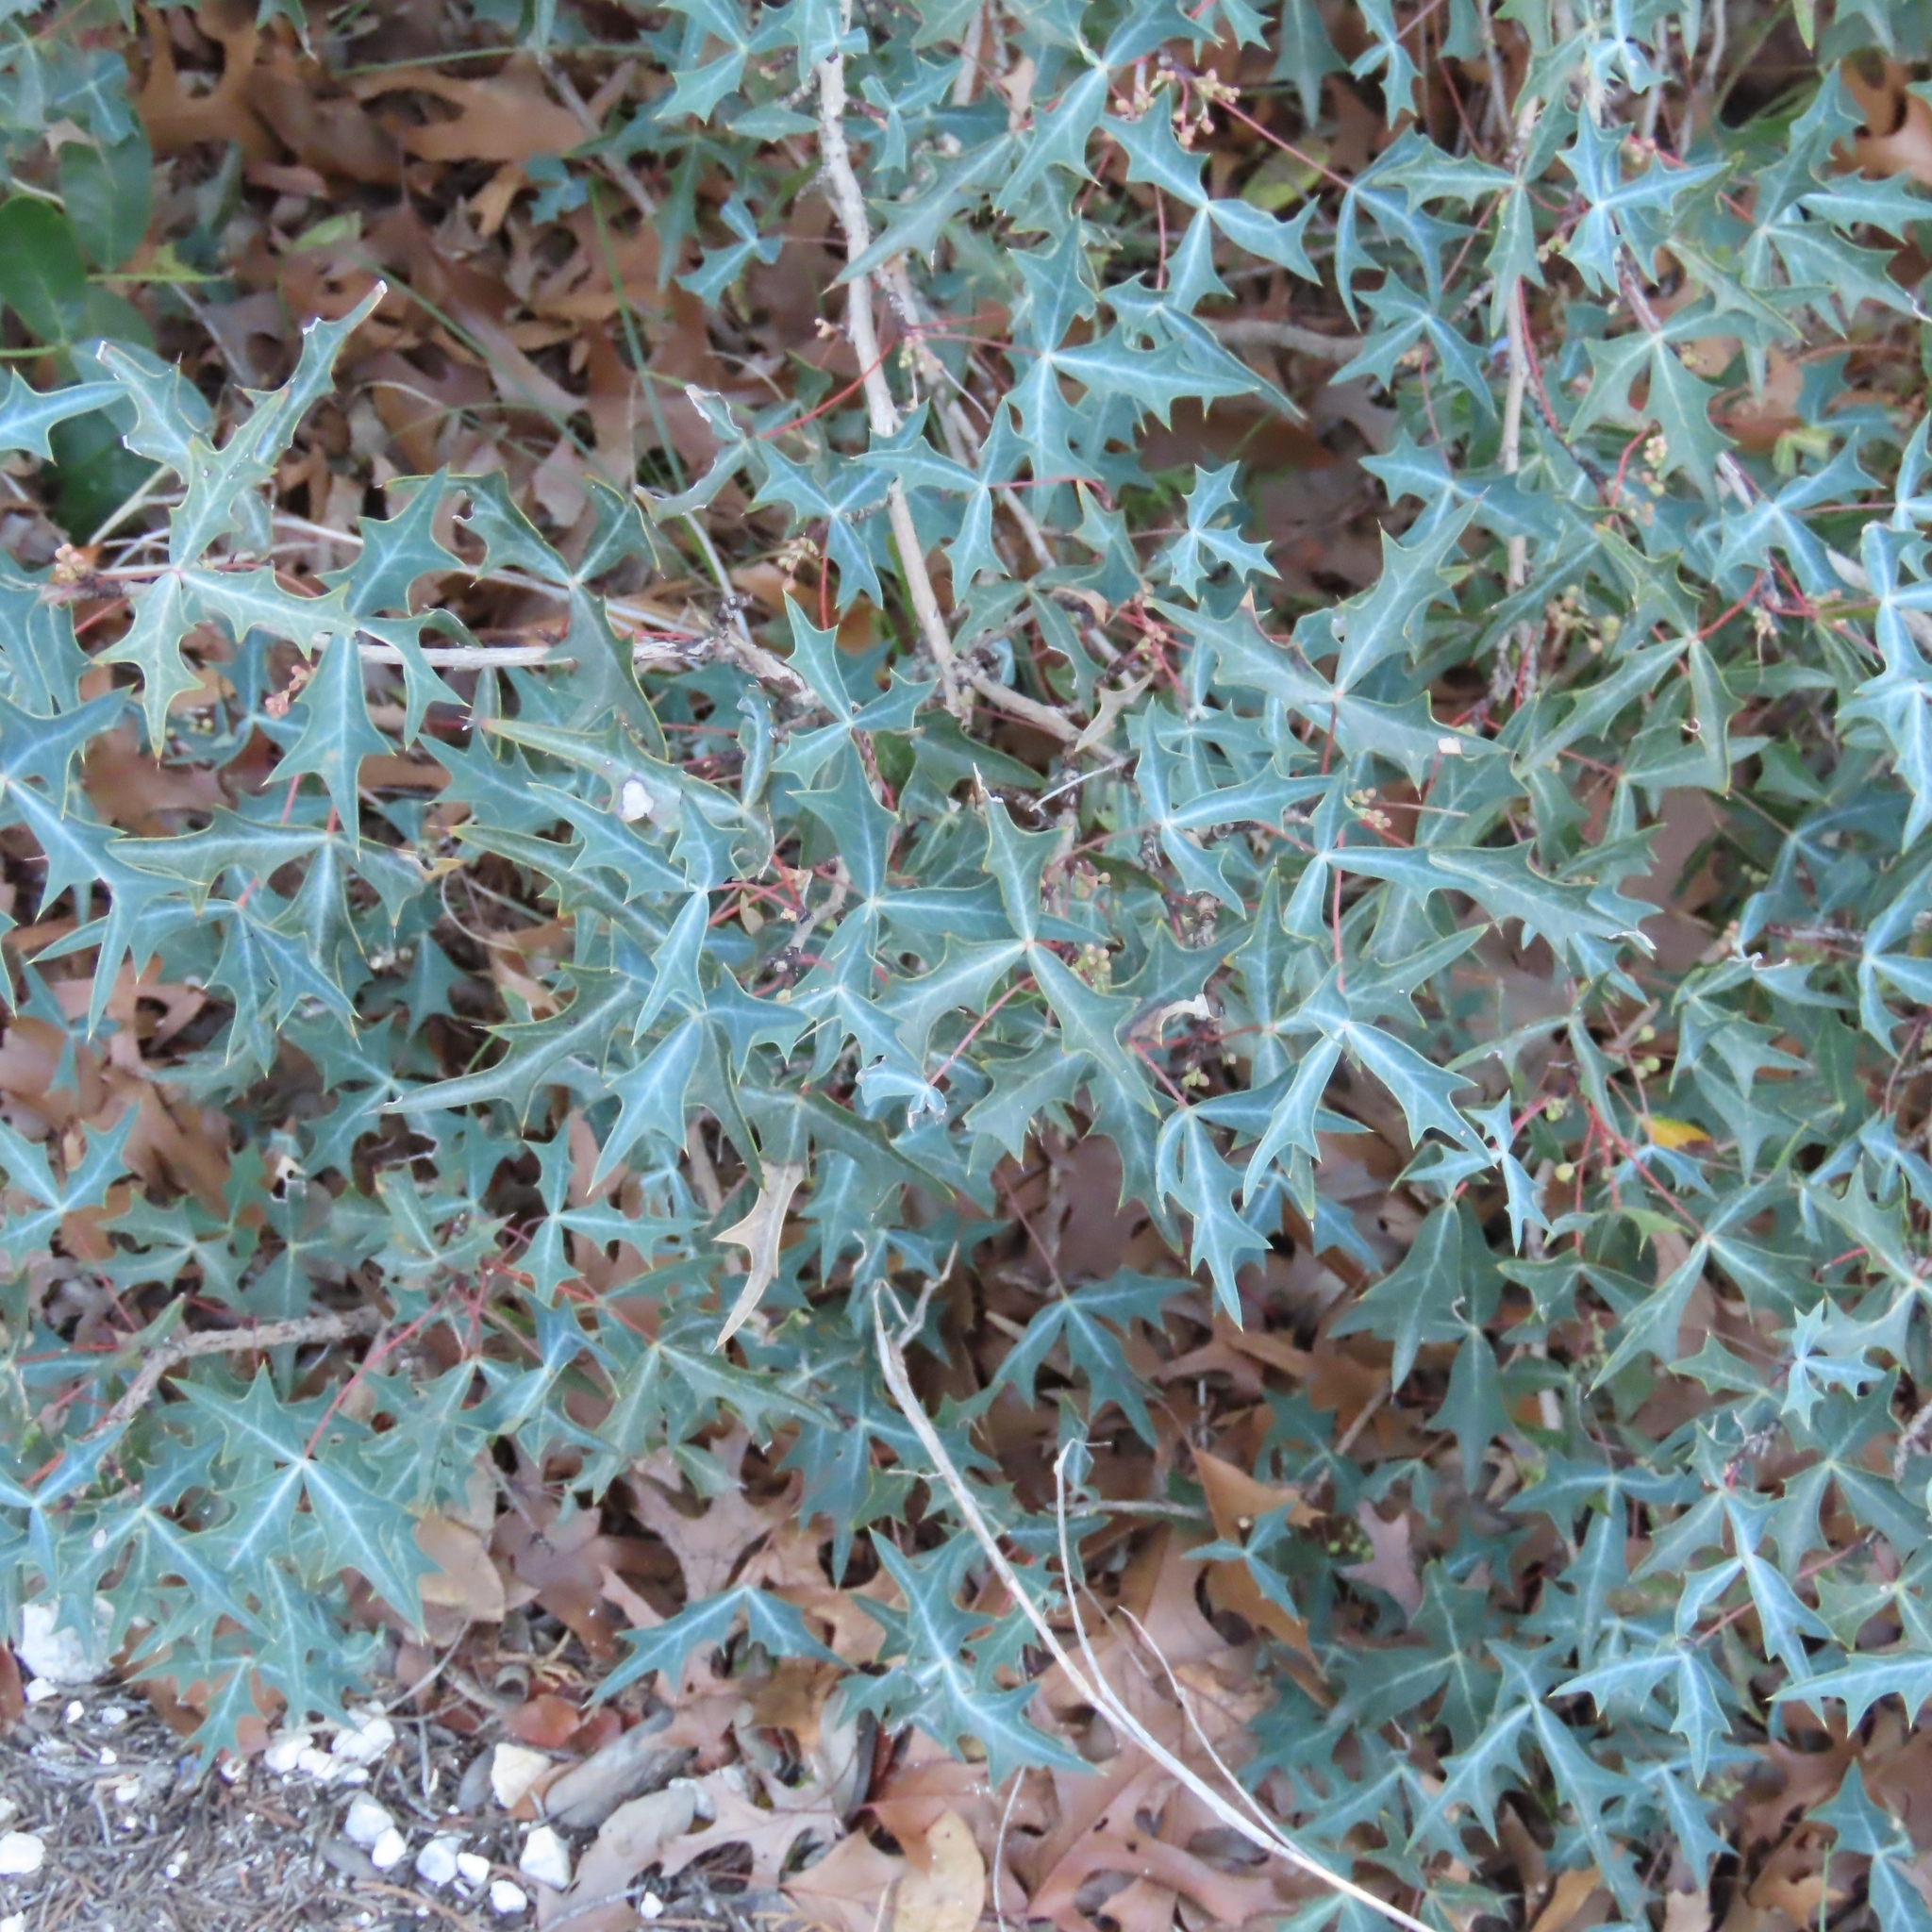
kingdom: Plantae
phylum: Tracheophyta
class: Magnoliopsida
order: Ranunculales
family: Berberidaceae
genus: Alloberberis
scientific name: Alloberberis trifoliolata
